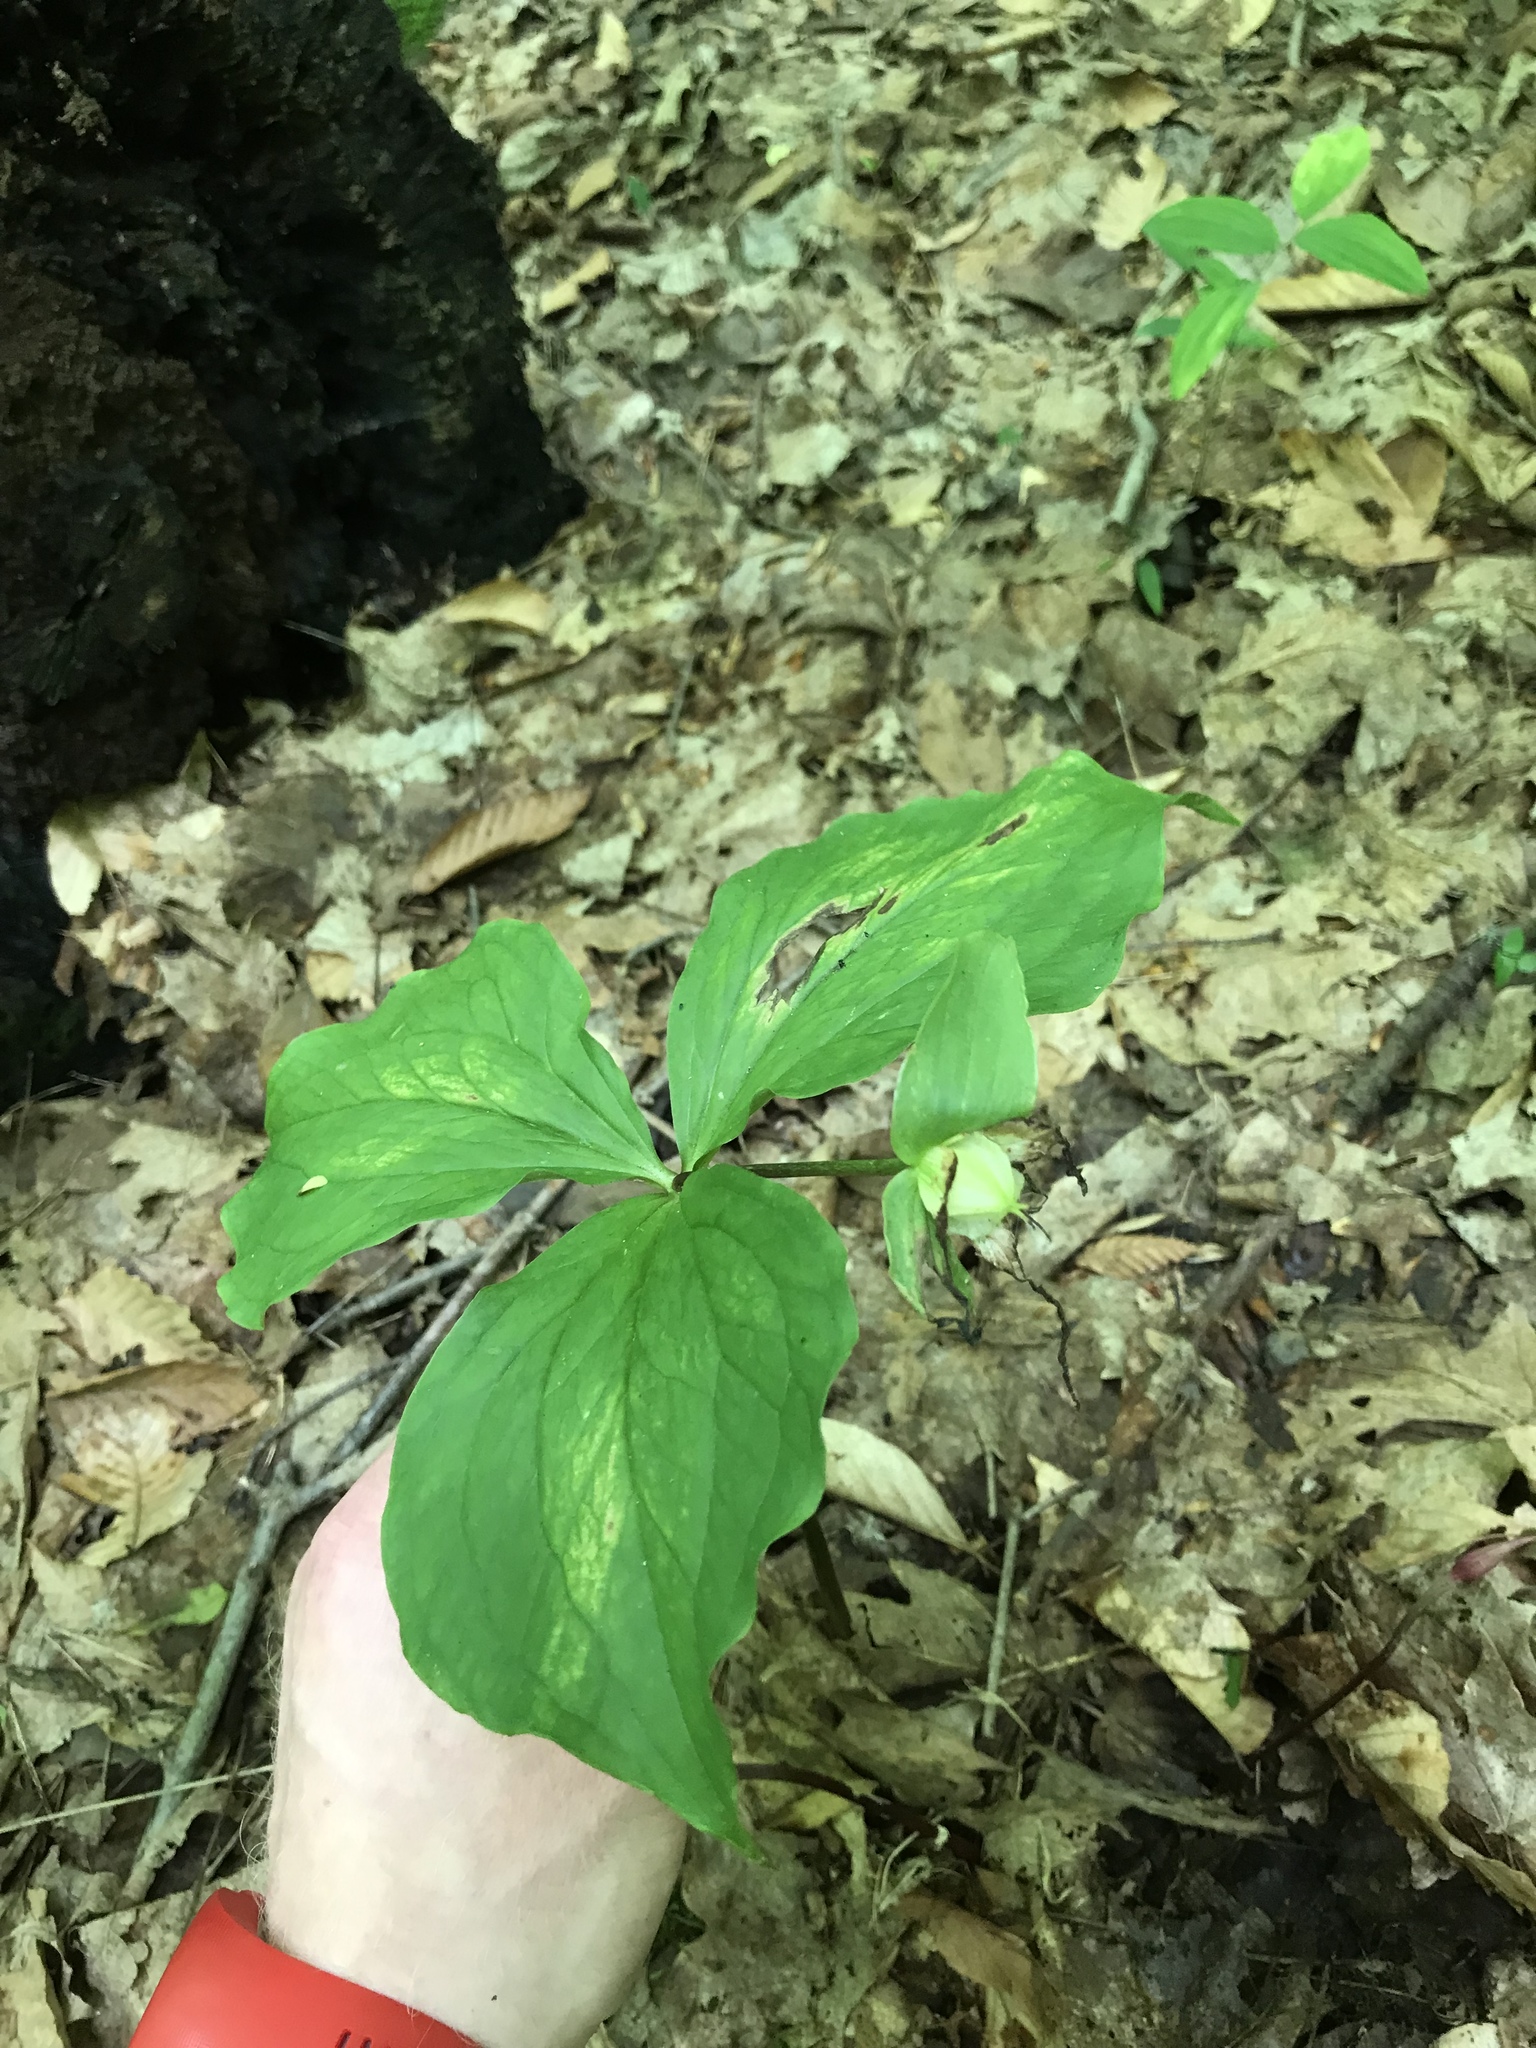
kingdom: Plantae
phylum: Tracheophyta
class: Liliopsida
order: Liliales
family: Melanthiaceae
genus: Trillium
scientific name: Trillium grandiflorum
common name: Great white trillium
